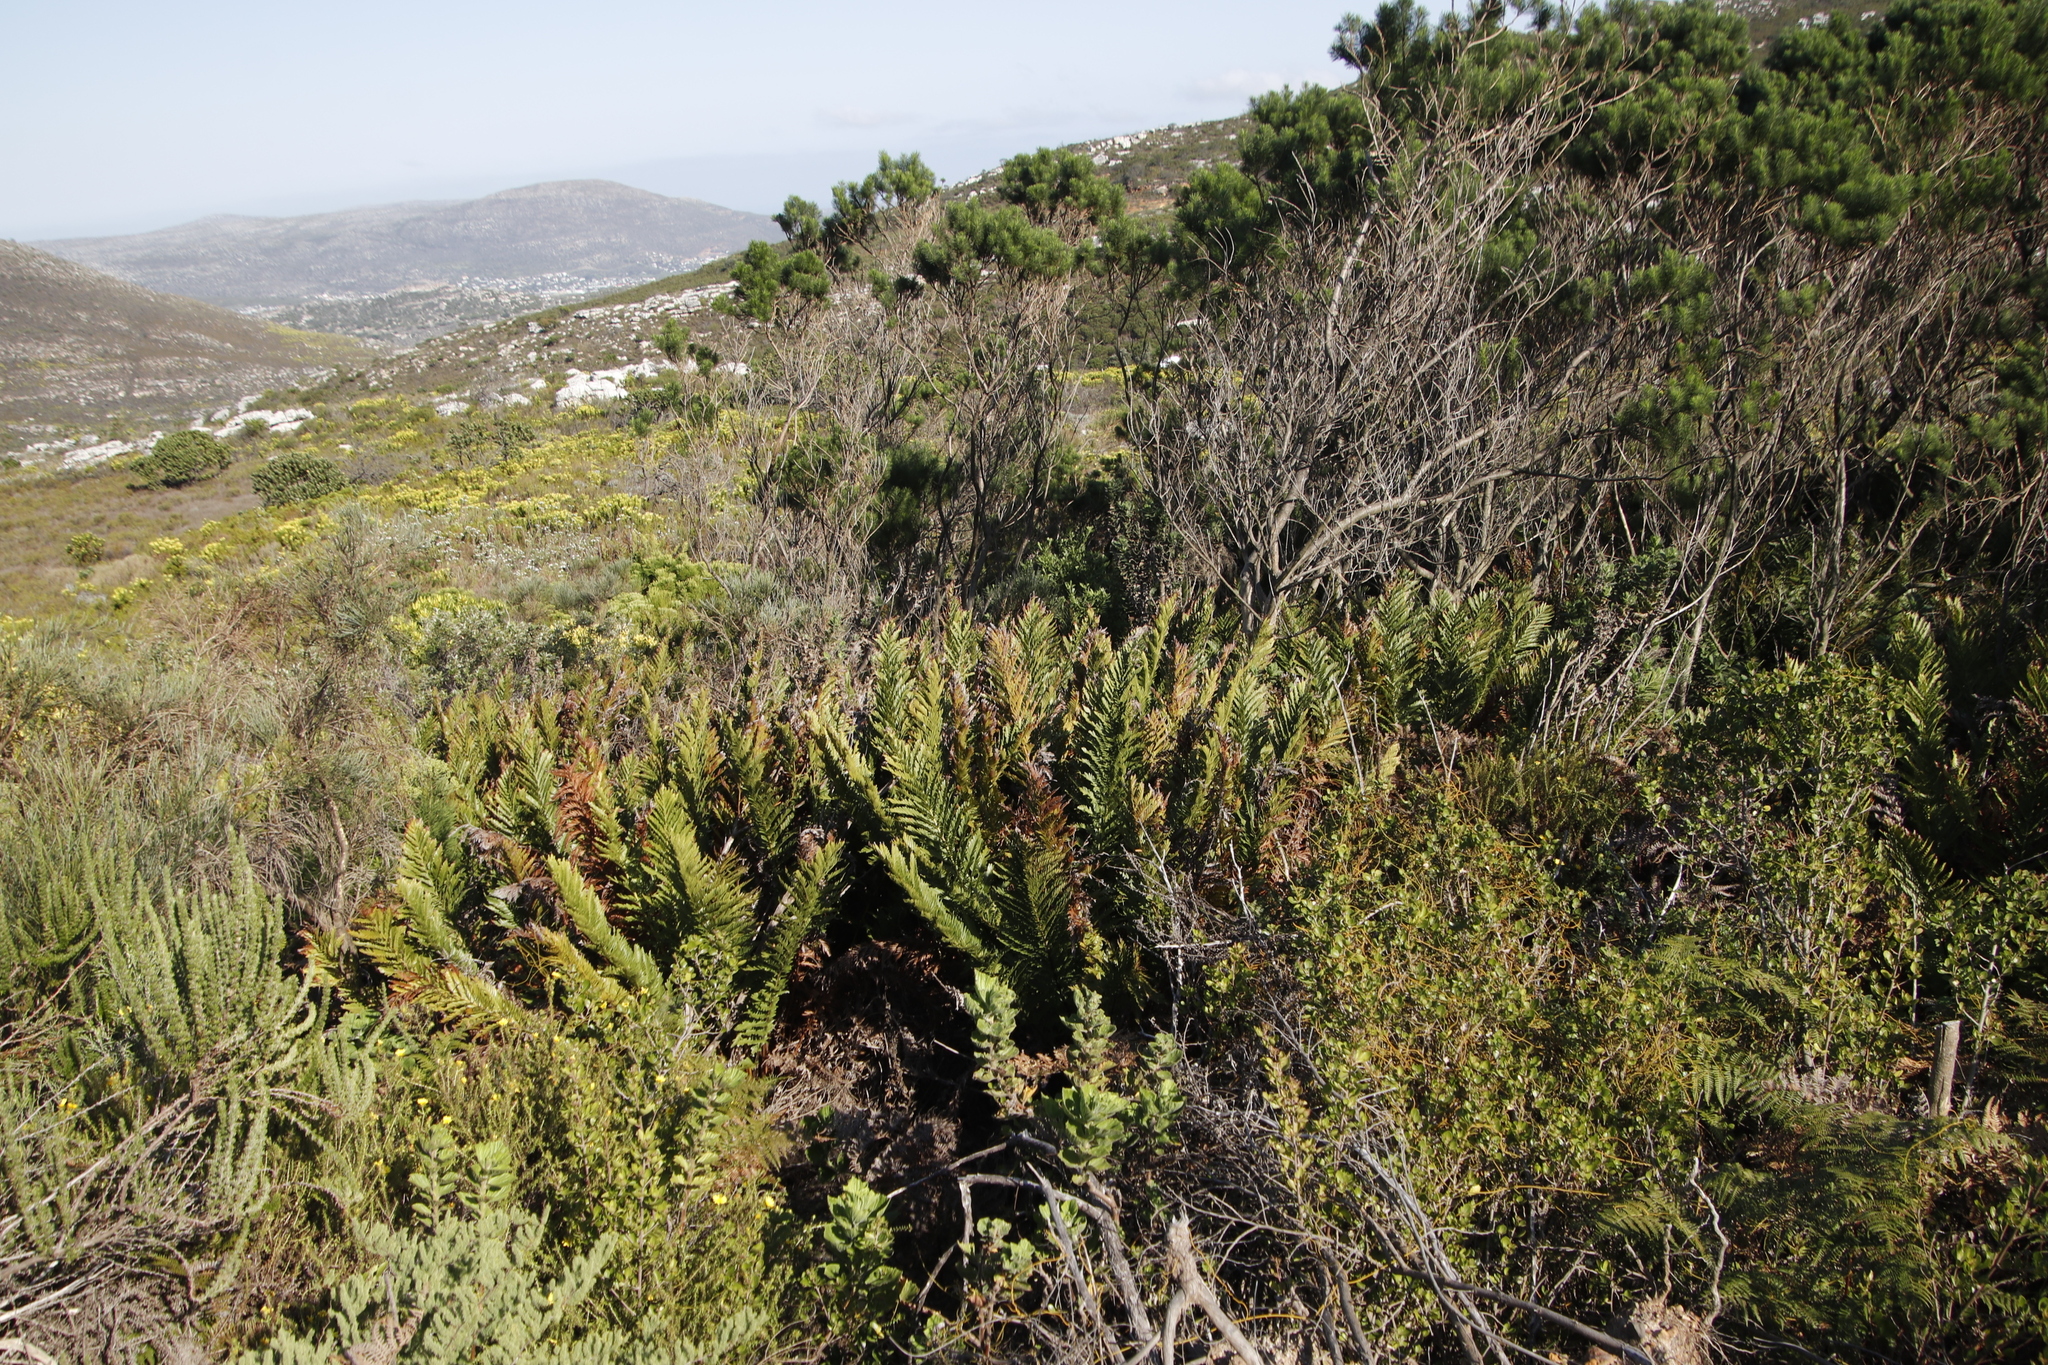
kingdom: Plantae
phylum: Tracheophyta
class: Polypodiopsida
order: Osmundales
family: Osmundaceae
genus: Todea
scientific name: Todea barbara
